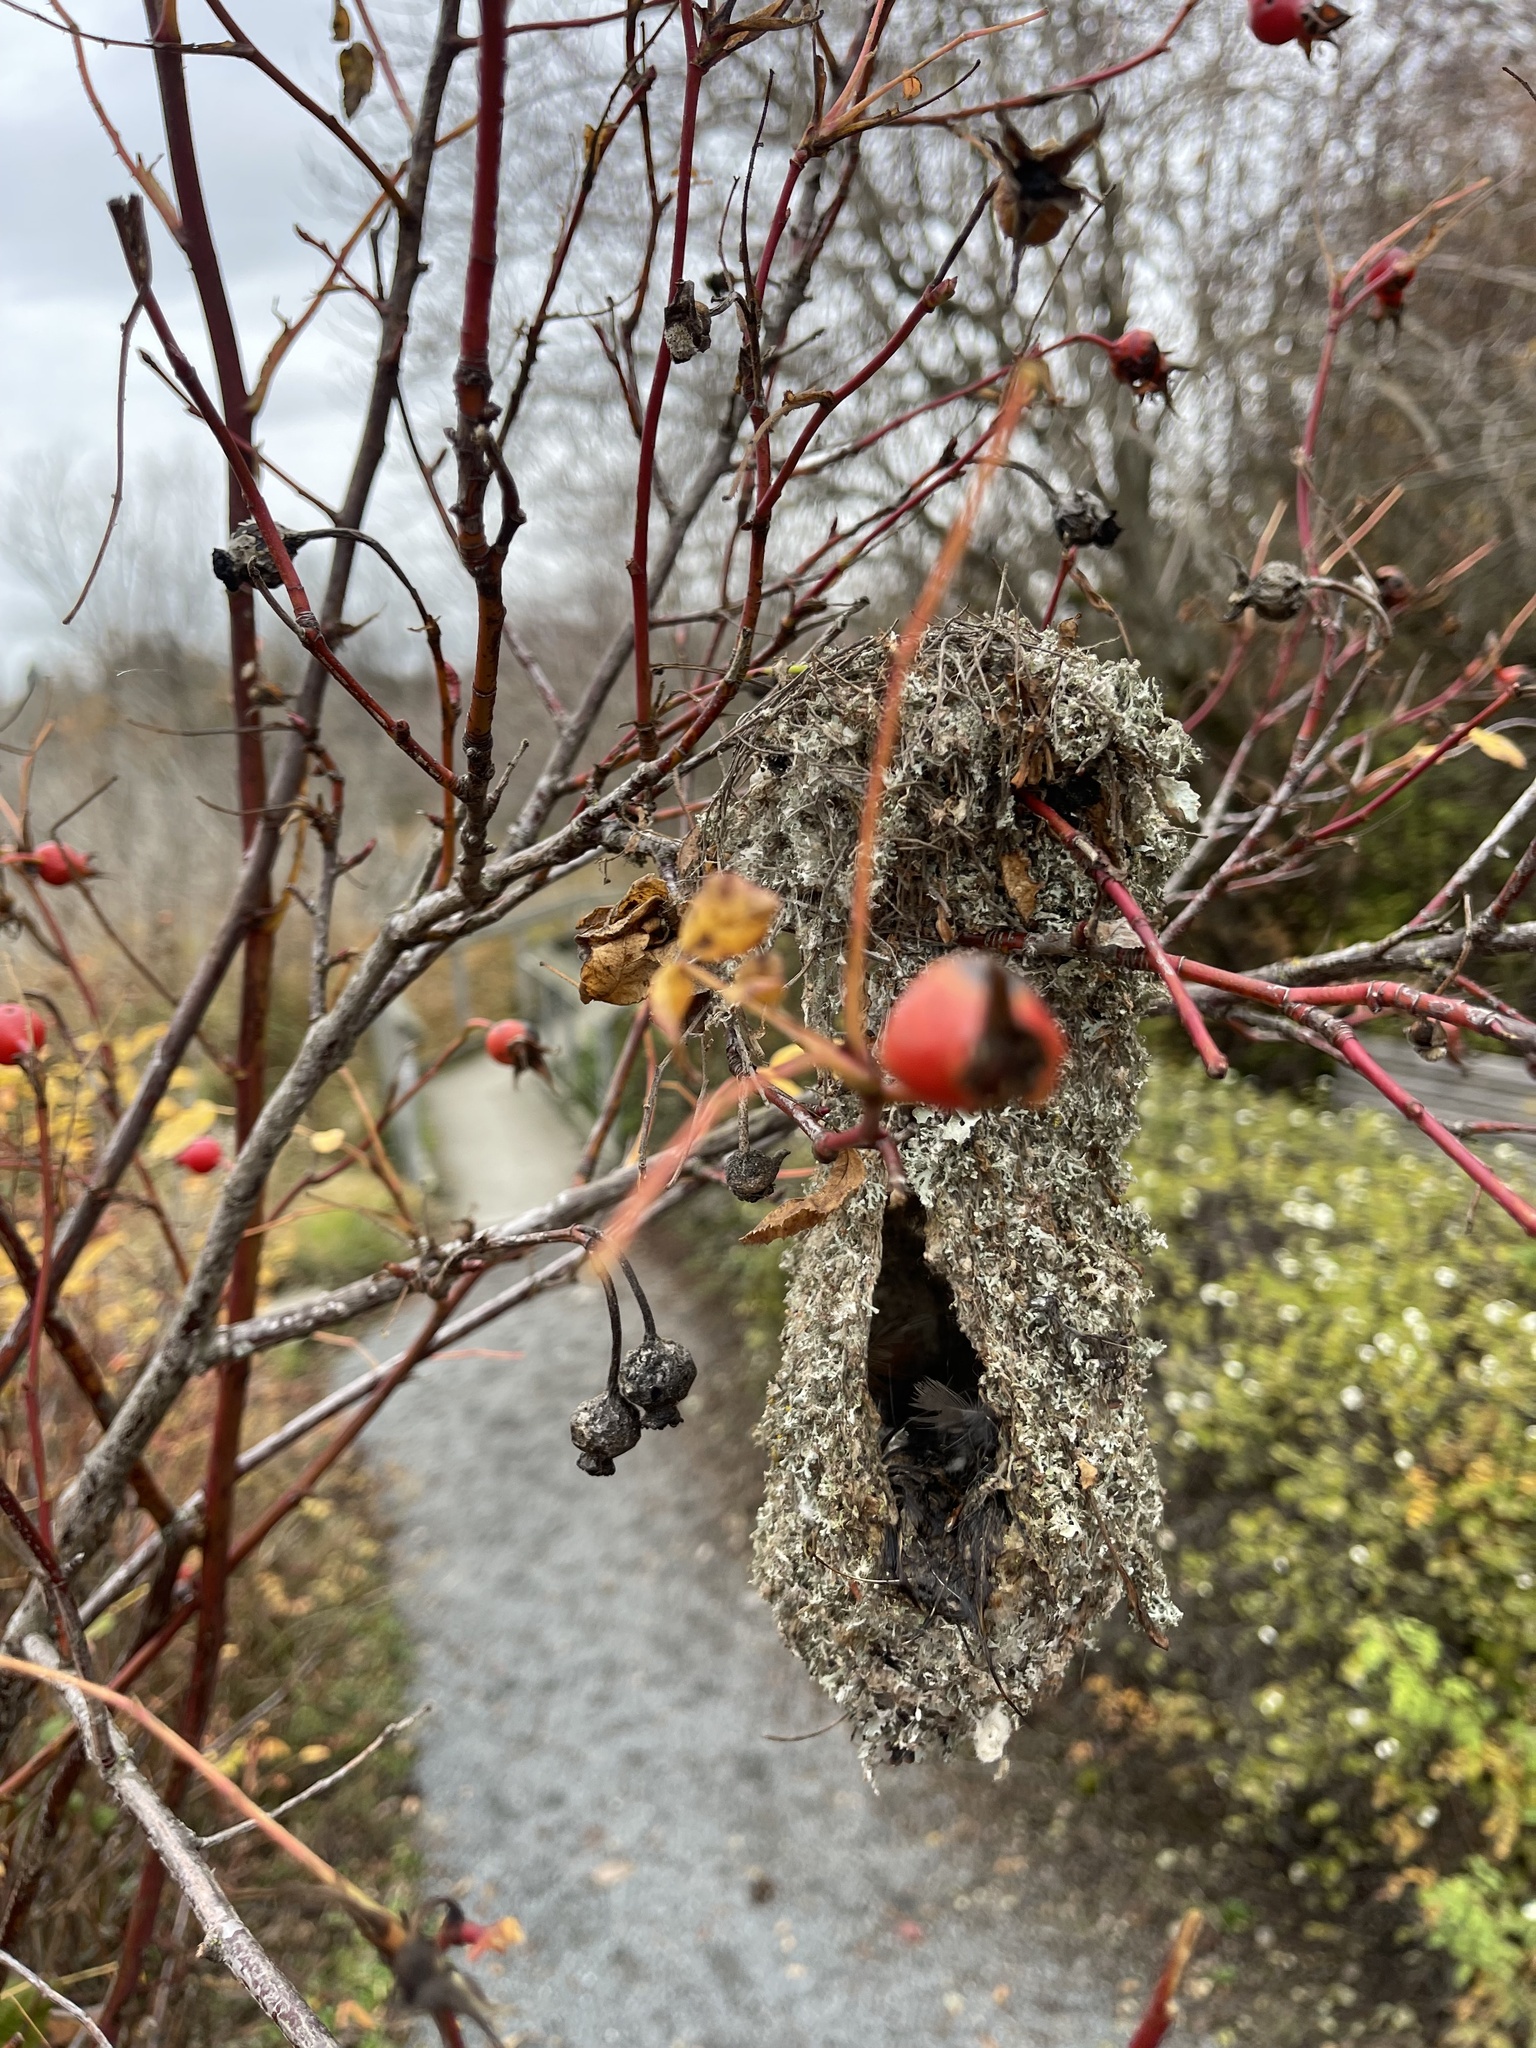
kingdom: Animalia
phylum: Chordata
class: Aves
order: Passeriformes
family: Aegithalidae
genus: Psaltriparus
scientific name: Psaltriparus minimus
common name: American bushtit
